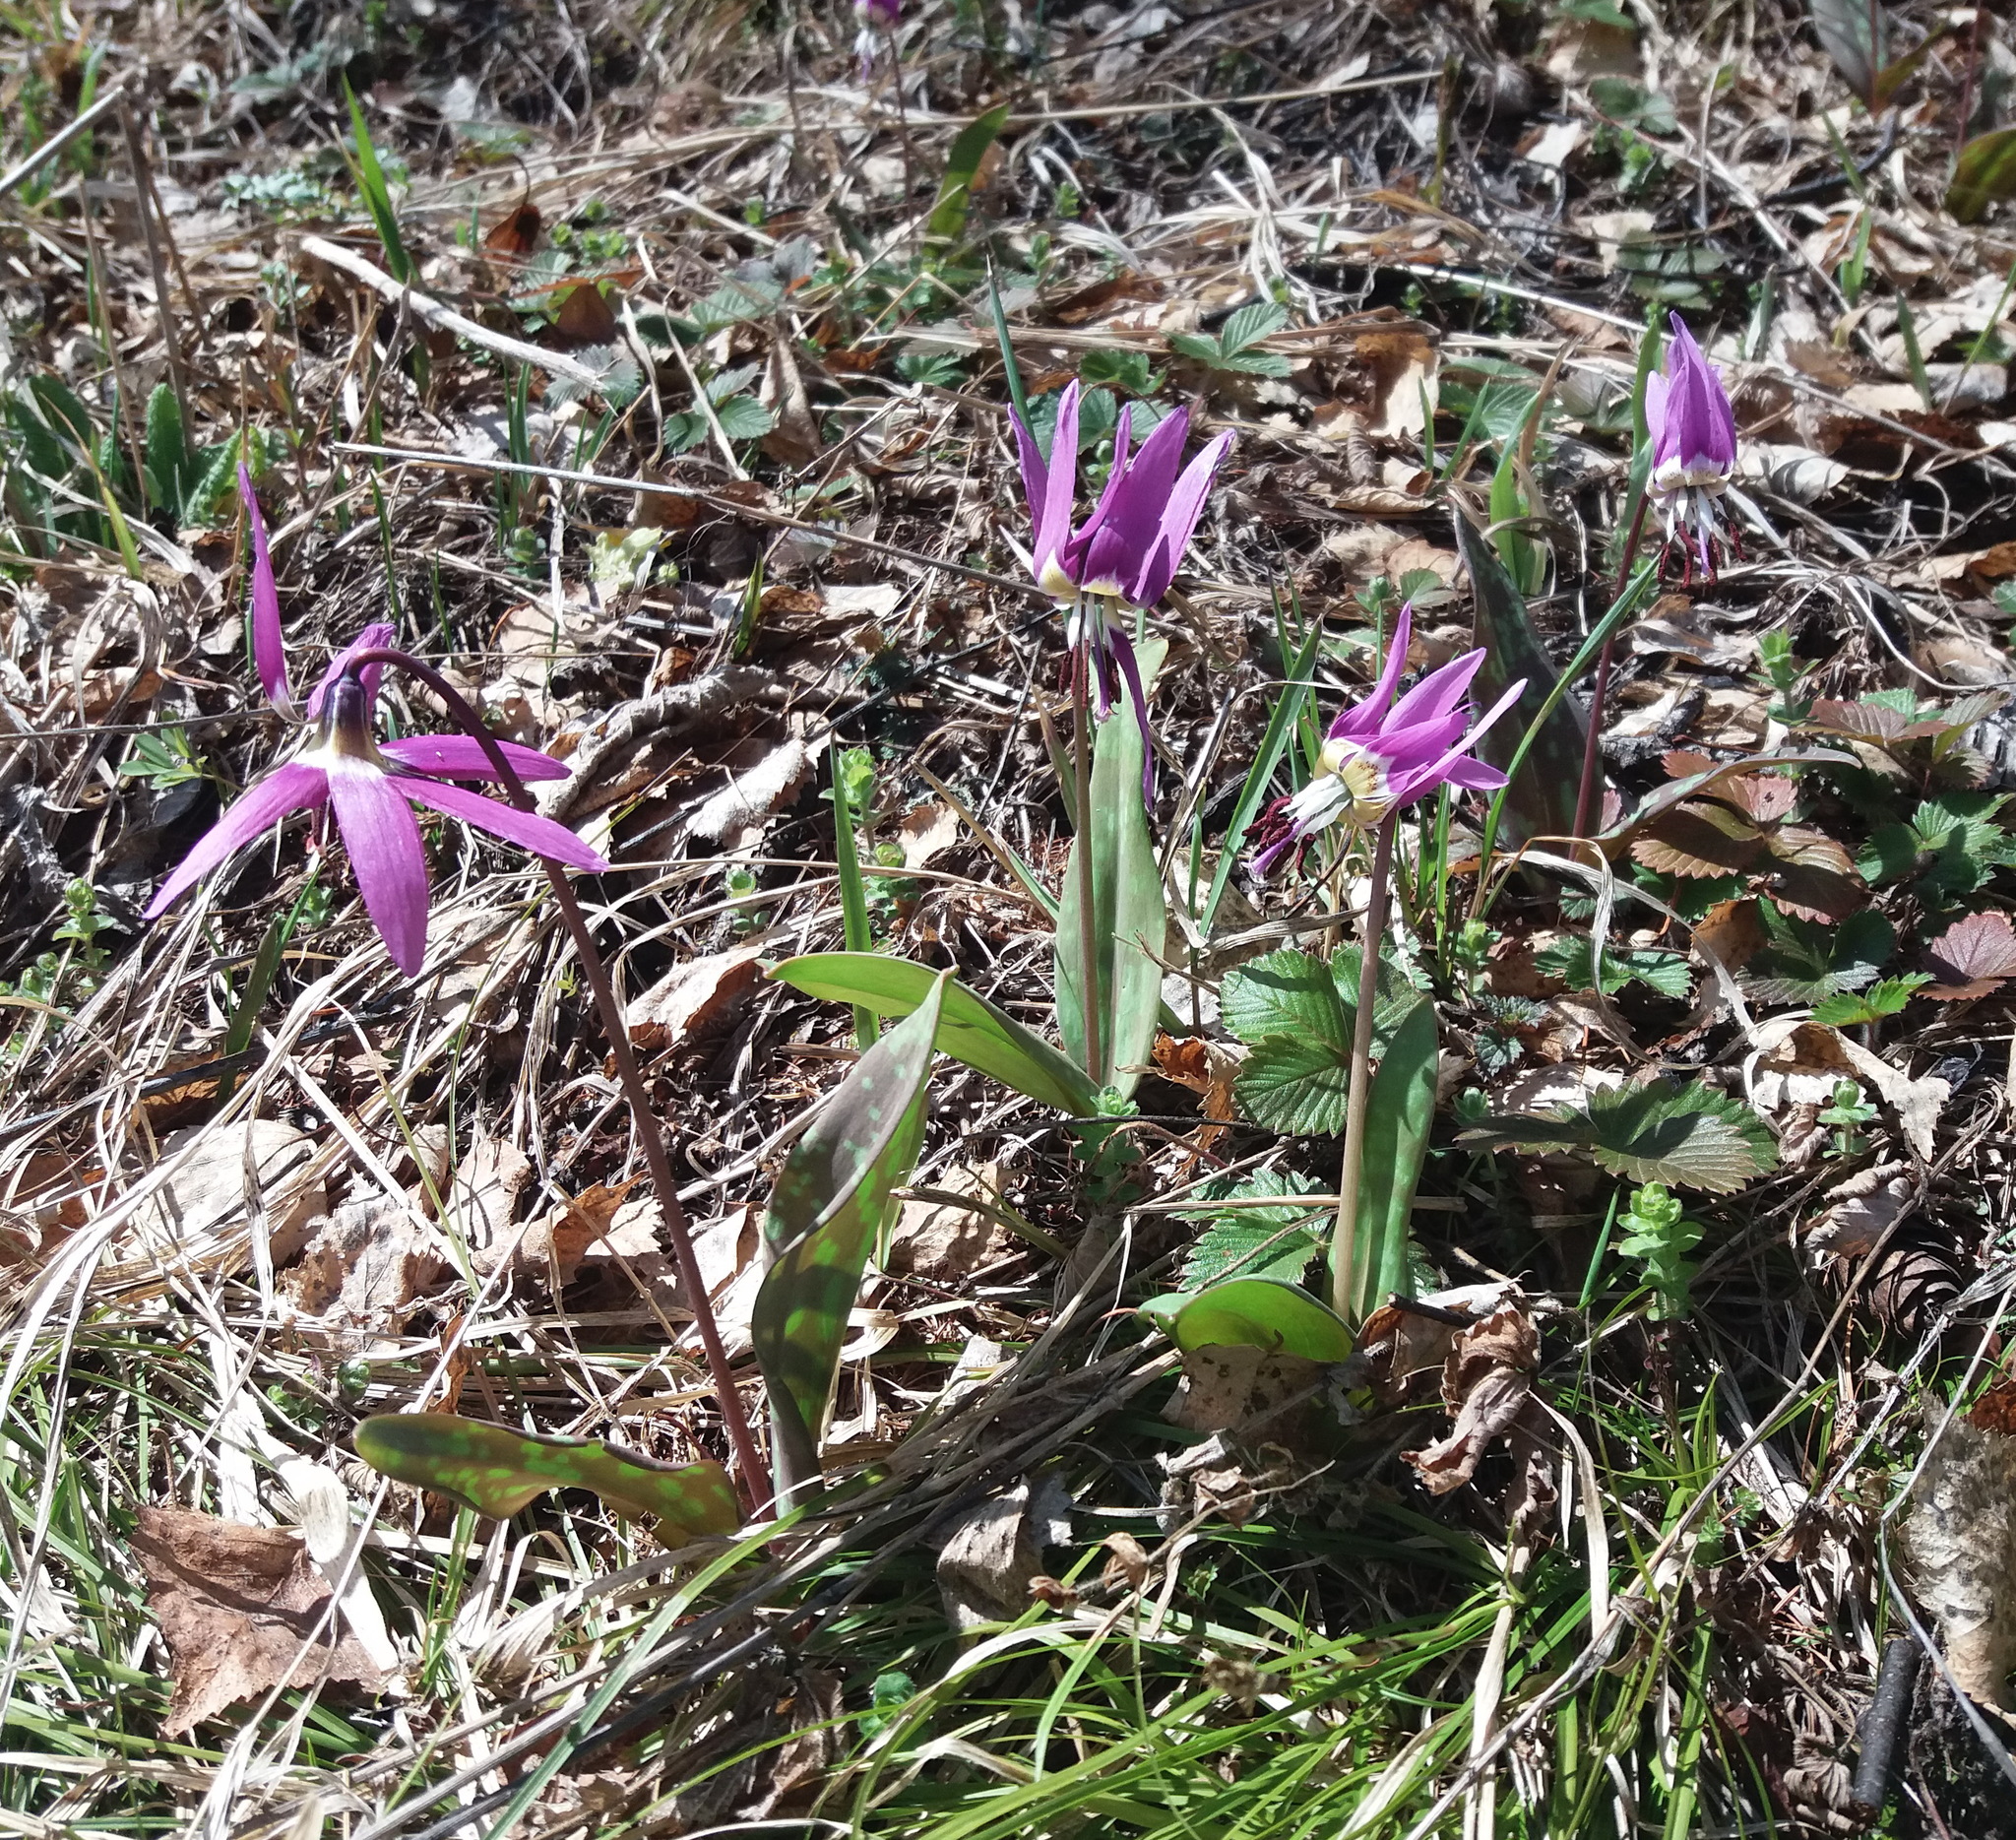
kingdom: Plantae
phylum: Tracheophyta
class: Liliopsida
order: Liliales
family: Liliaceae
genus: Erythronium
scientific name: Erythronium sulevii
